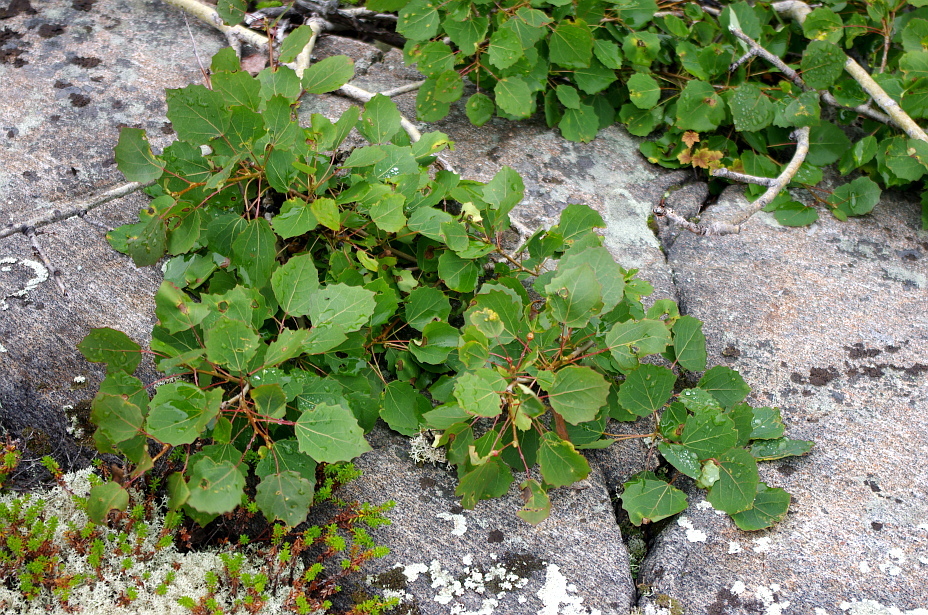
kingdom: Plantae
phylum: Tracheophyta
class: Magnoliopsida
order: Malpighiales
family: Salicaceae
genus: Populus
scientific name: Populus tremula
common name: European aspen
